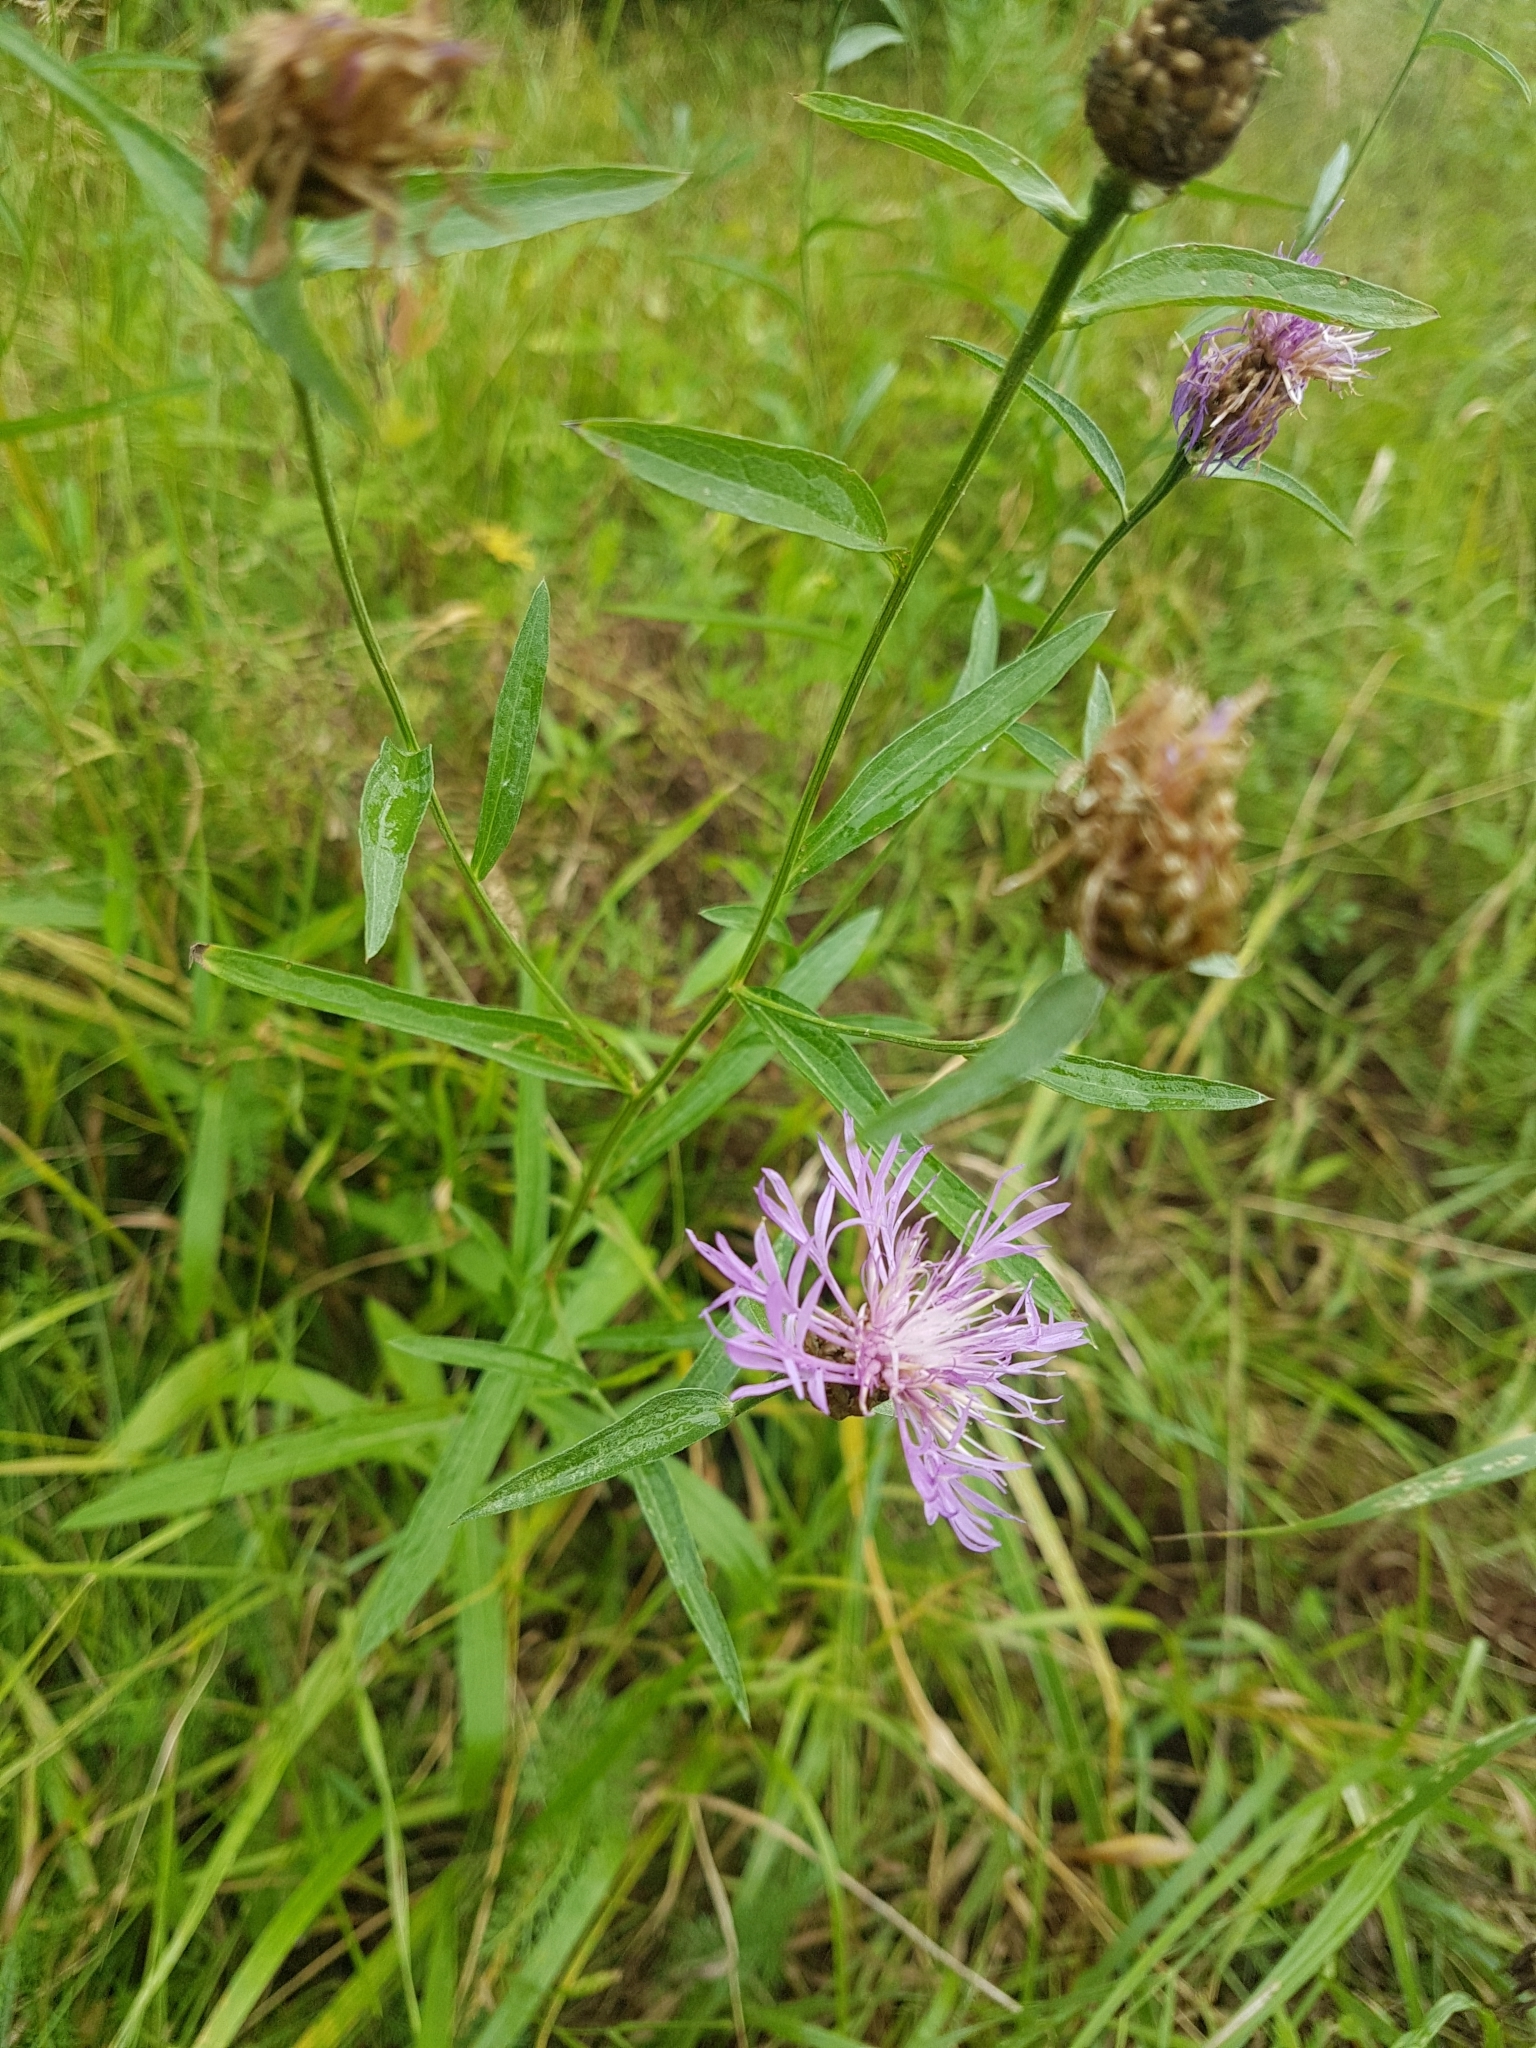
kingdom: Plantae
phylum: Tracheophyta
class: Magnoliopsida
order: Asterales
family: Asteraceae
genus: Centaurea
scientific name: Centaurea jacea
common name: Brown knapweed
